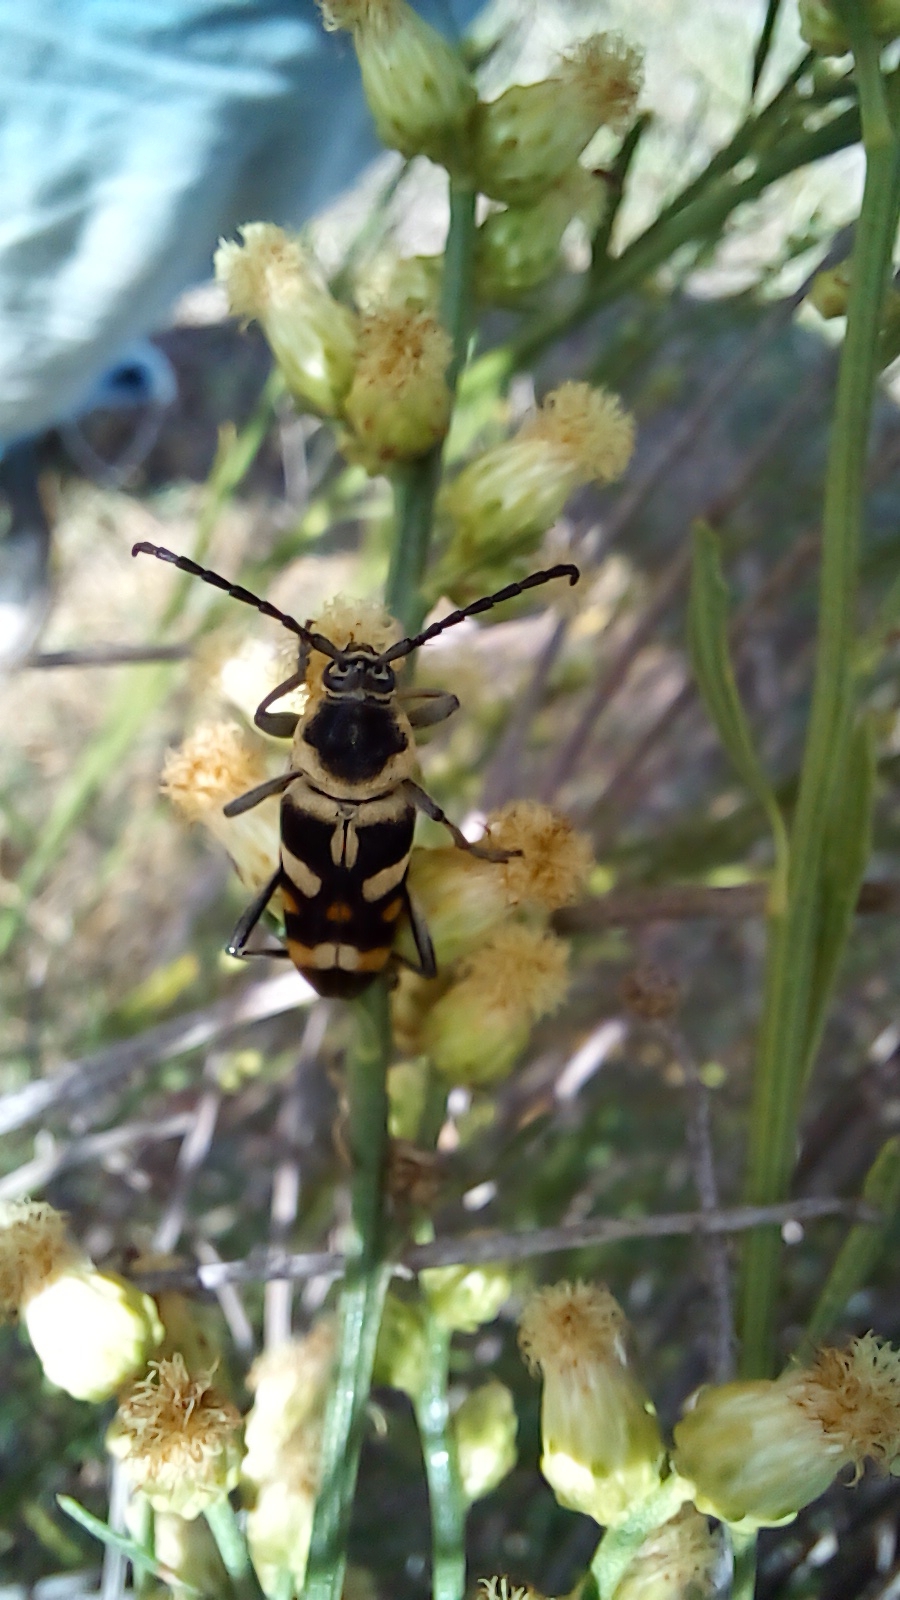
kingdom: Animalia
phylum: Arthropoda
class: Insecta
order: Coleoptera
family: Cerambycidae
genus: Megacyllene
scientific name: Megacyllene mellyi
